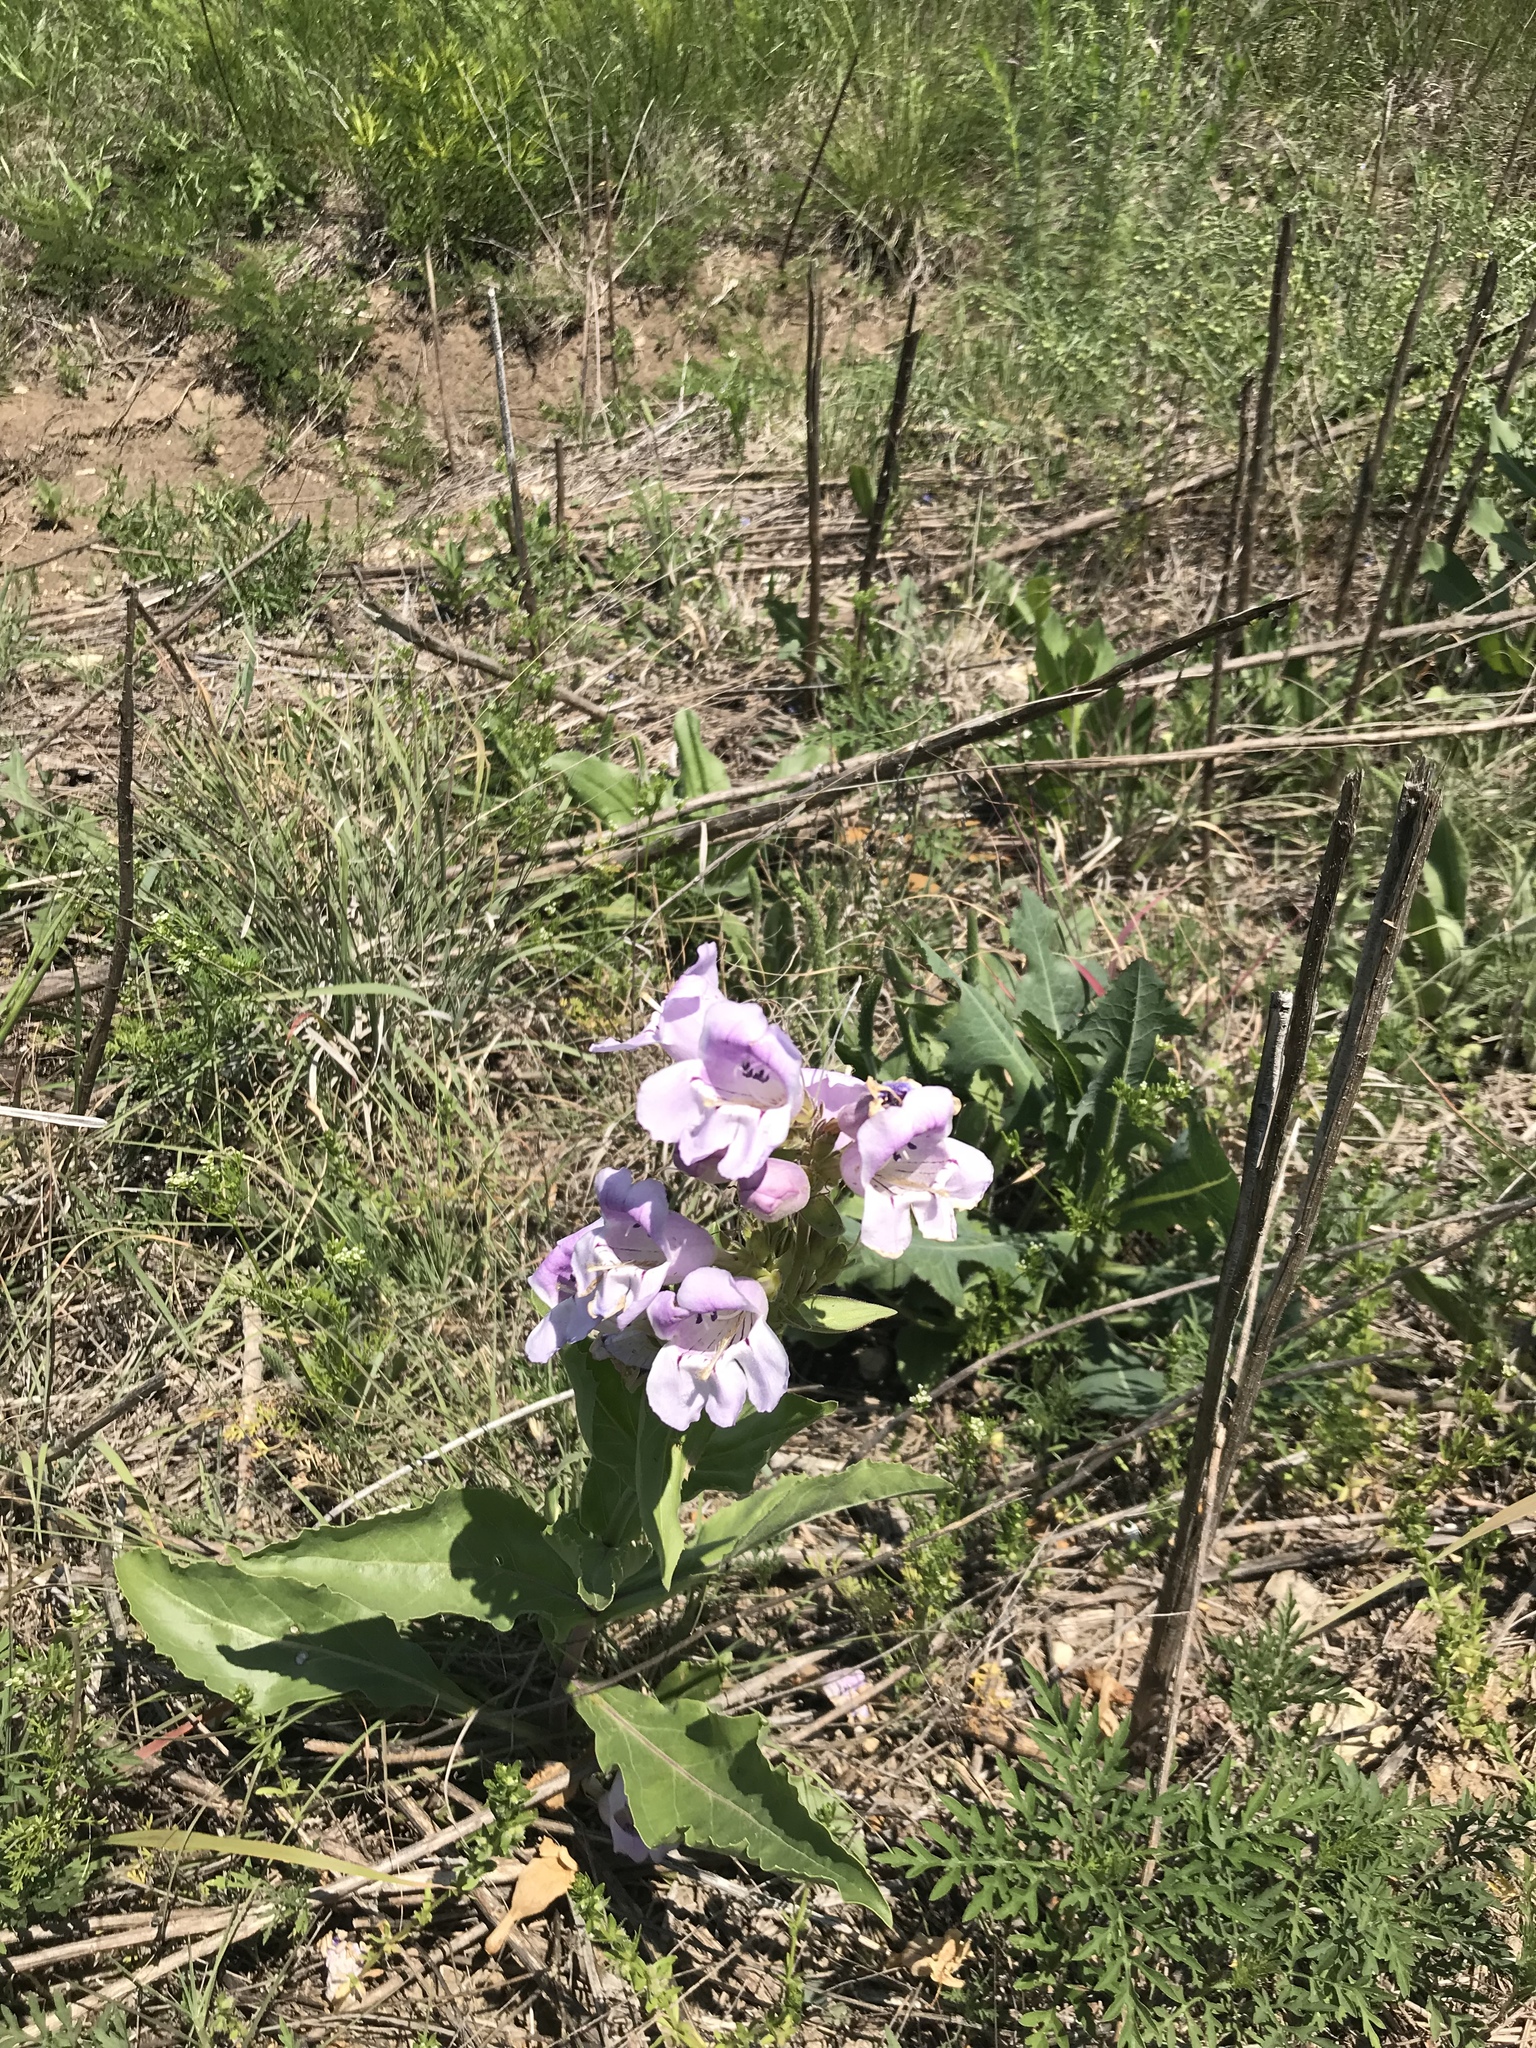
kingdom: Plantae
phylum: Tracheophyta
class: Magnoliopsida
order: Lamiales
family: Plantaginaceae
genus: Penstemon
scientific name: Penstemon cobaea
